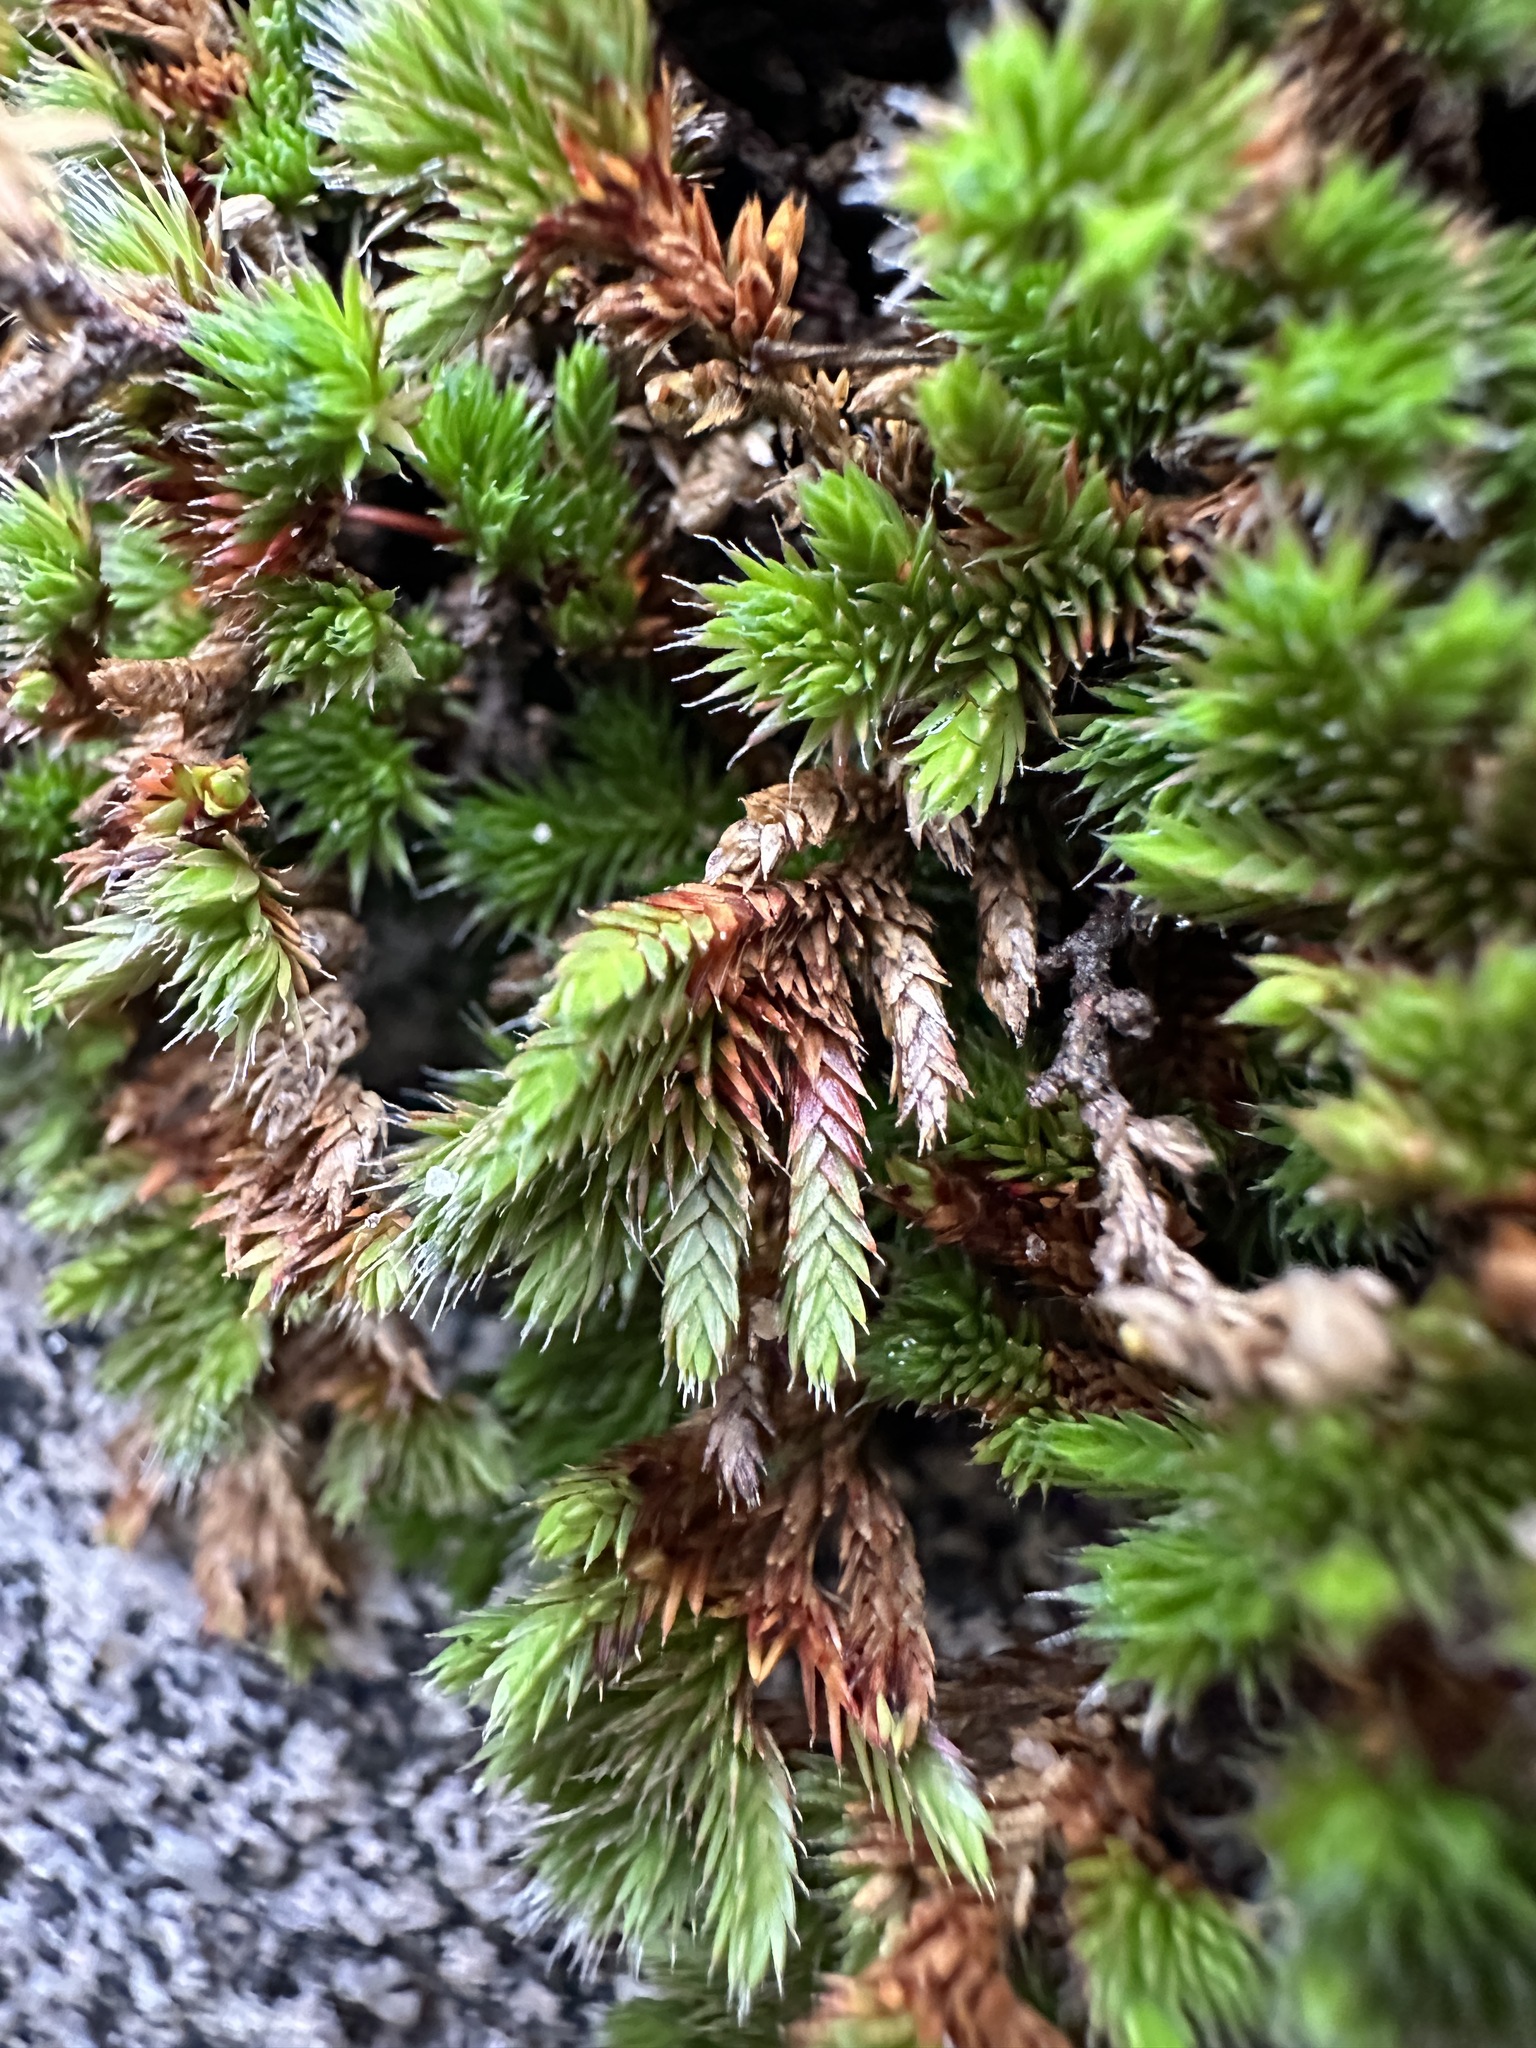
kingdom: Plantae
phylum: Tracheophyta
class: Lycopodiopsida
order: Selaginellales
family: Selaginellaceae
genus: Selaginella
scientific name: Selaginella hansenii
